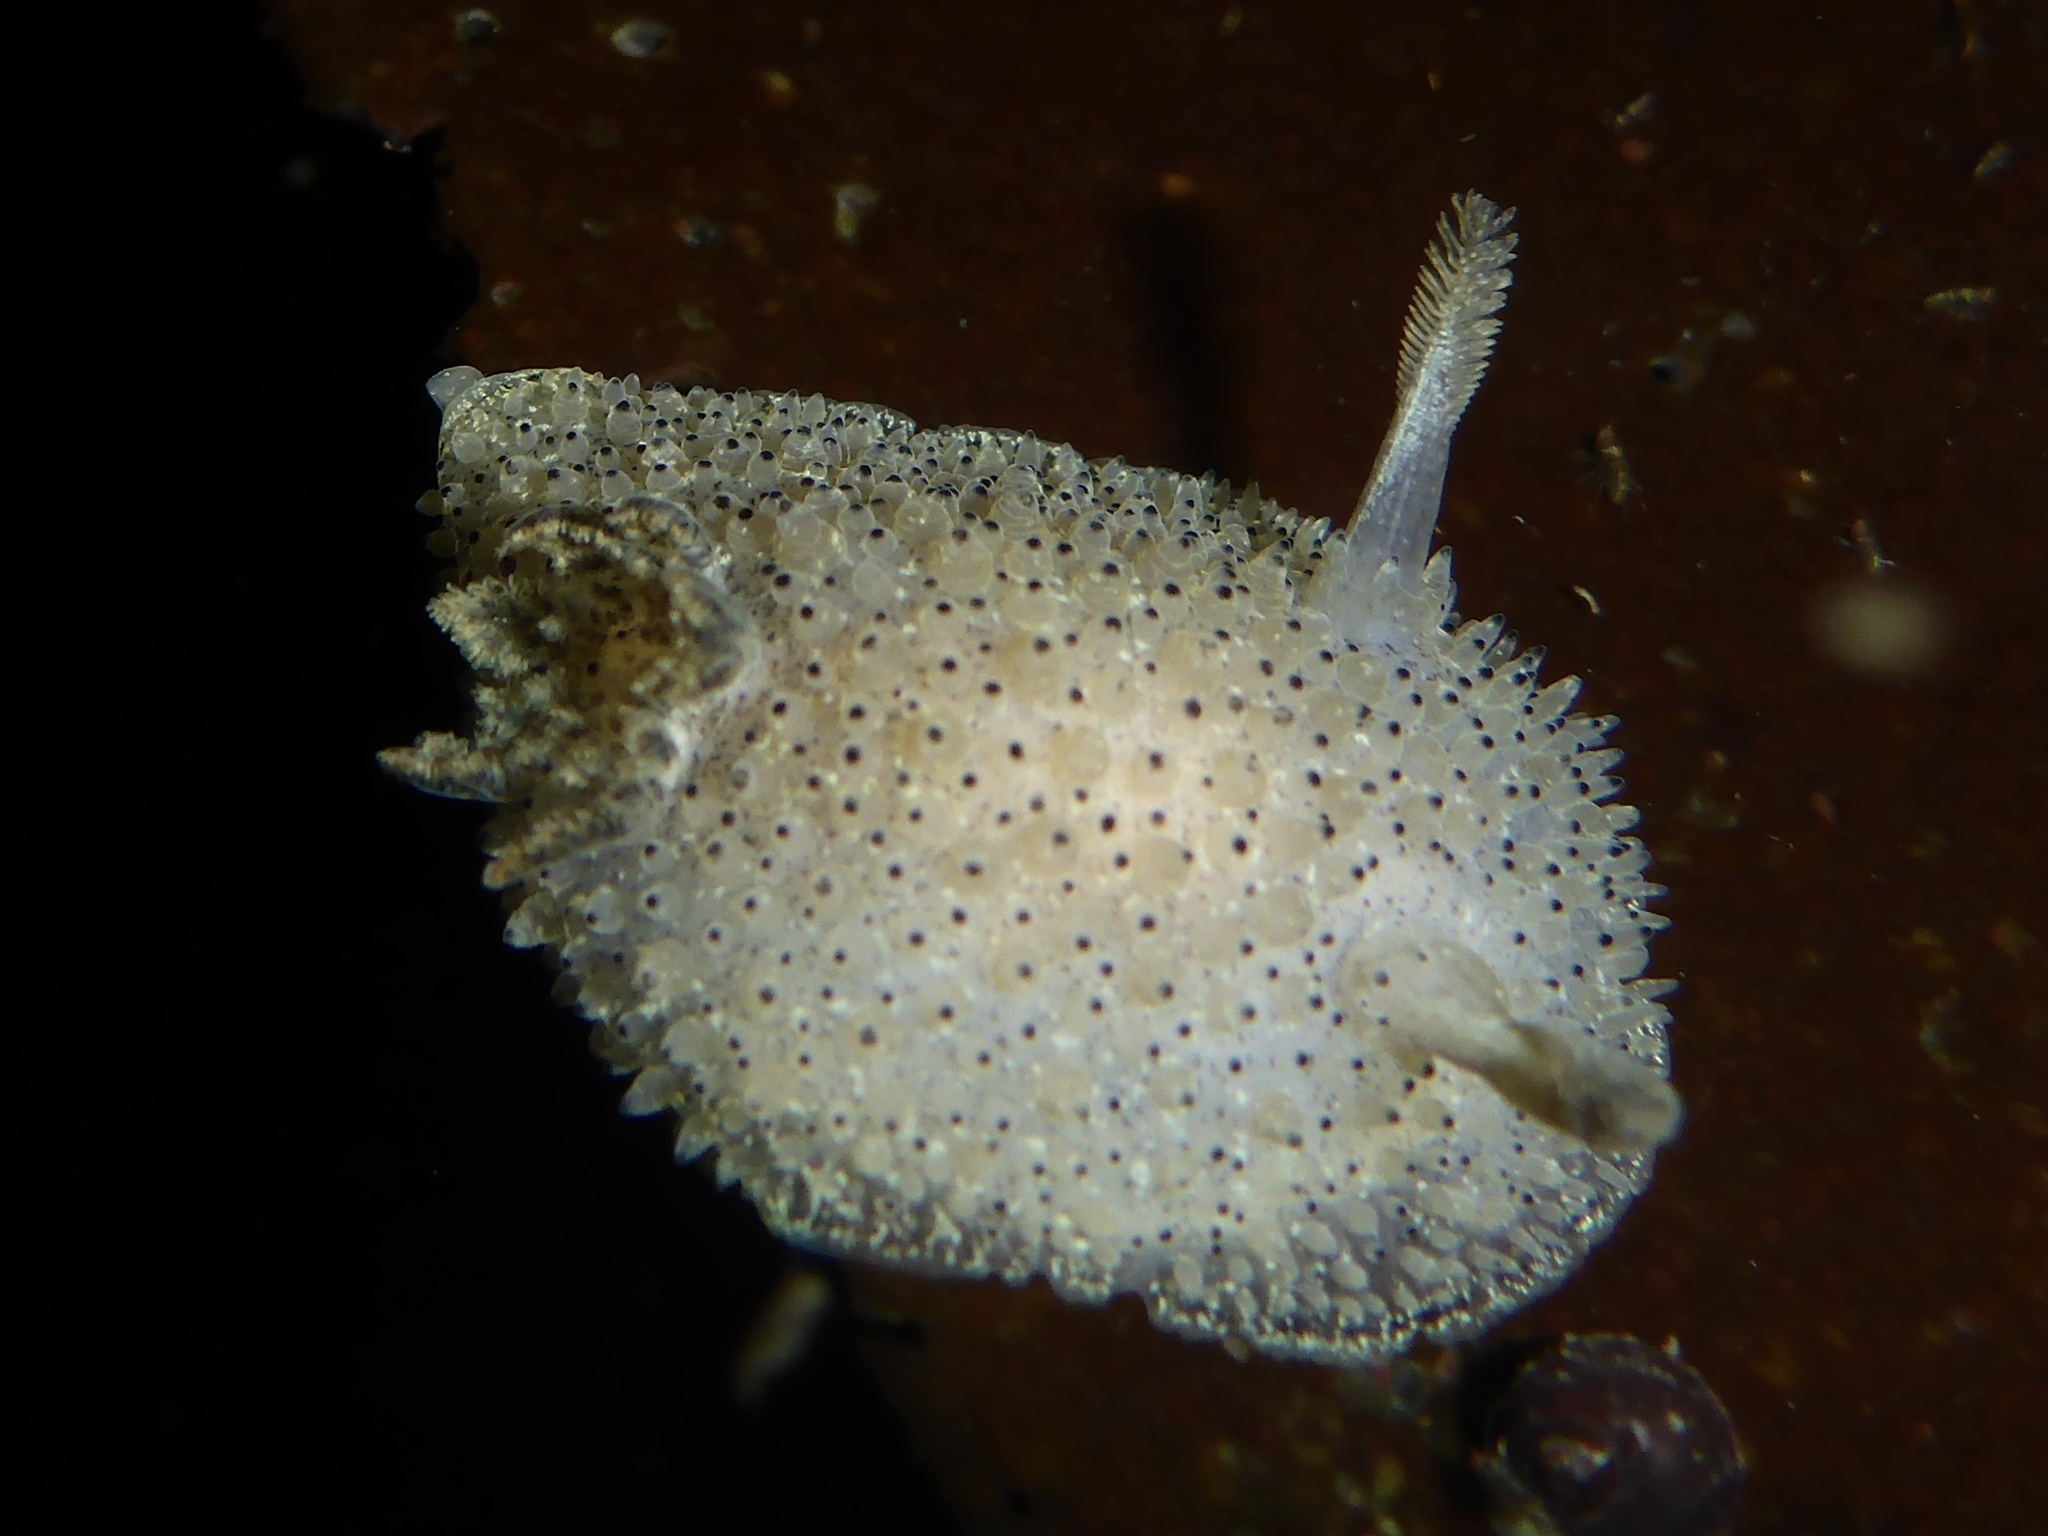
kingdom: Animalia
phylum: Mollusca
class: Gastropoda
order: Nudibranchia
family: Onchidorididae
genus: Acanthodoris
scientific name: Acanthodoris rhodoceras
